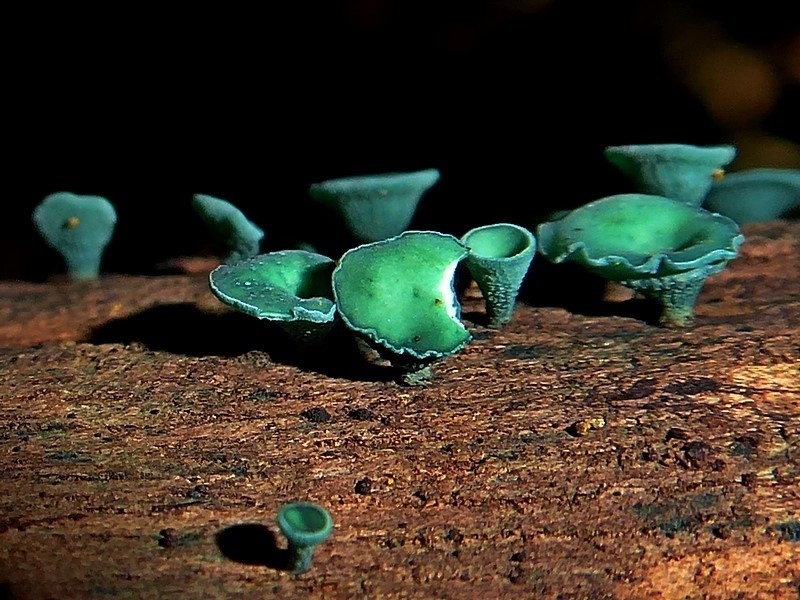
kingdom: Fungi
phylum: Ascomycota
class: Leotiomycetes
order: Helotiales
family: Chlorociboriaceae
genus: Chlorociboria
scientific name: Chlorociboria
